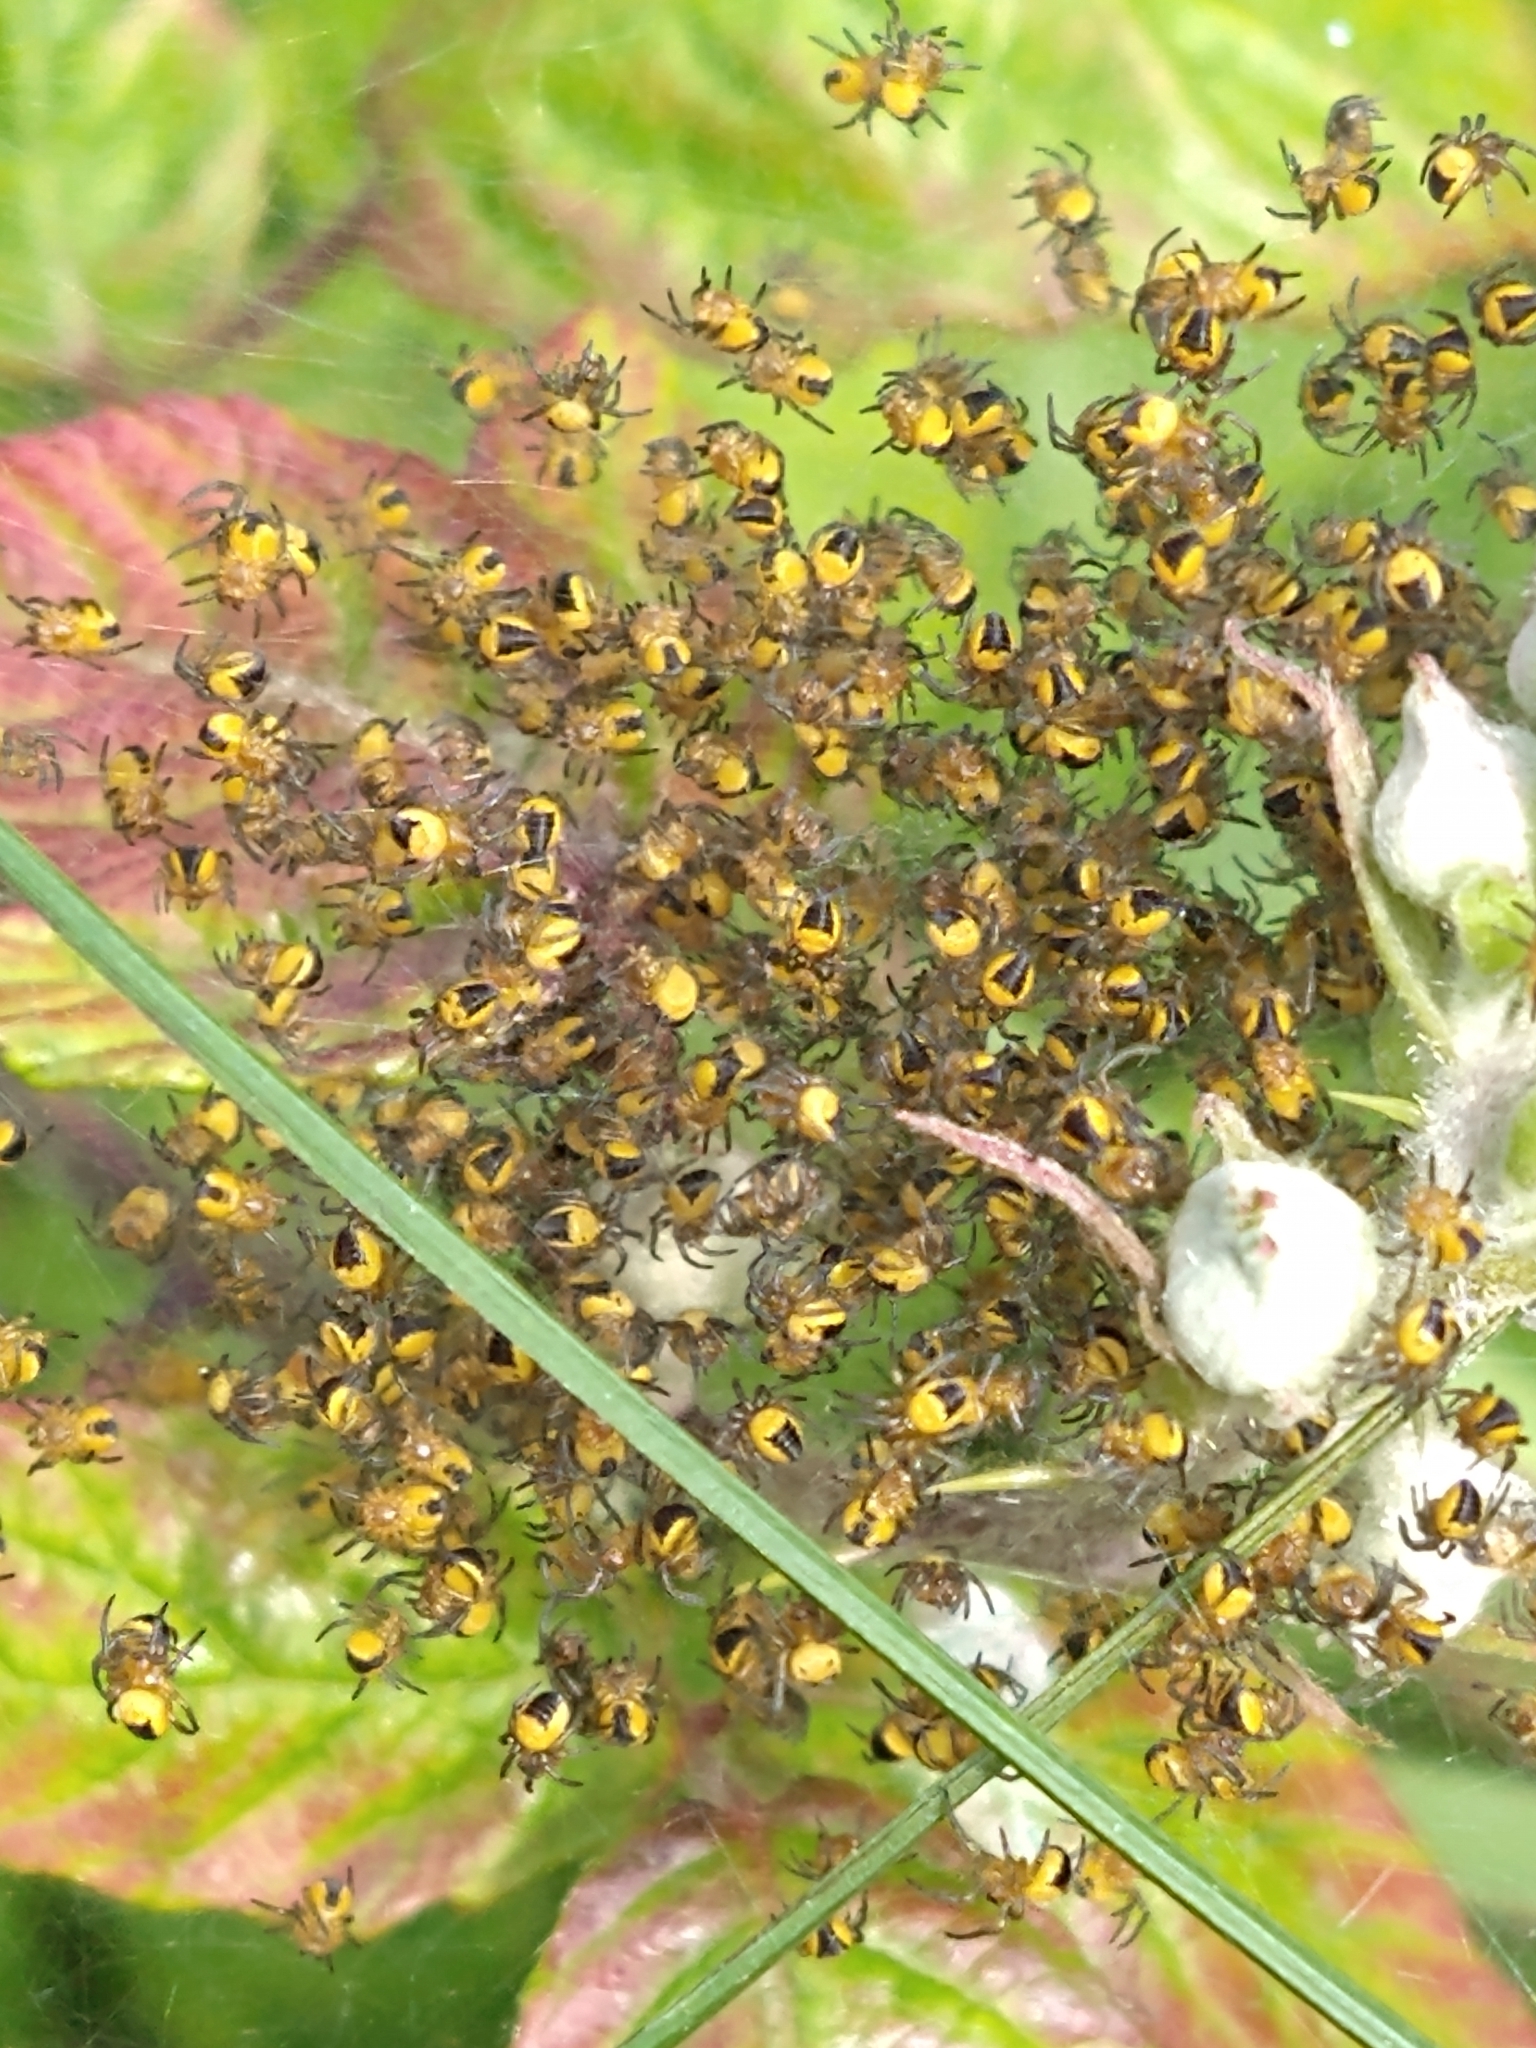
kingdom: Animalia
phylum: Arthropoda
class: Arachnida
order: Araneae
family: Araneidae
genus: Araneus
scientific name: Araneus diadematus
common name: Cross orbweaver
